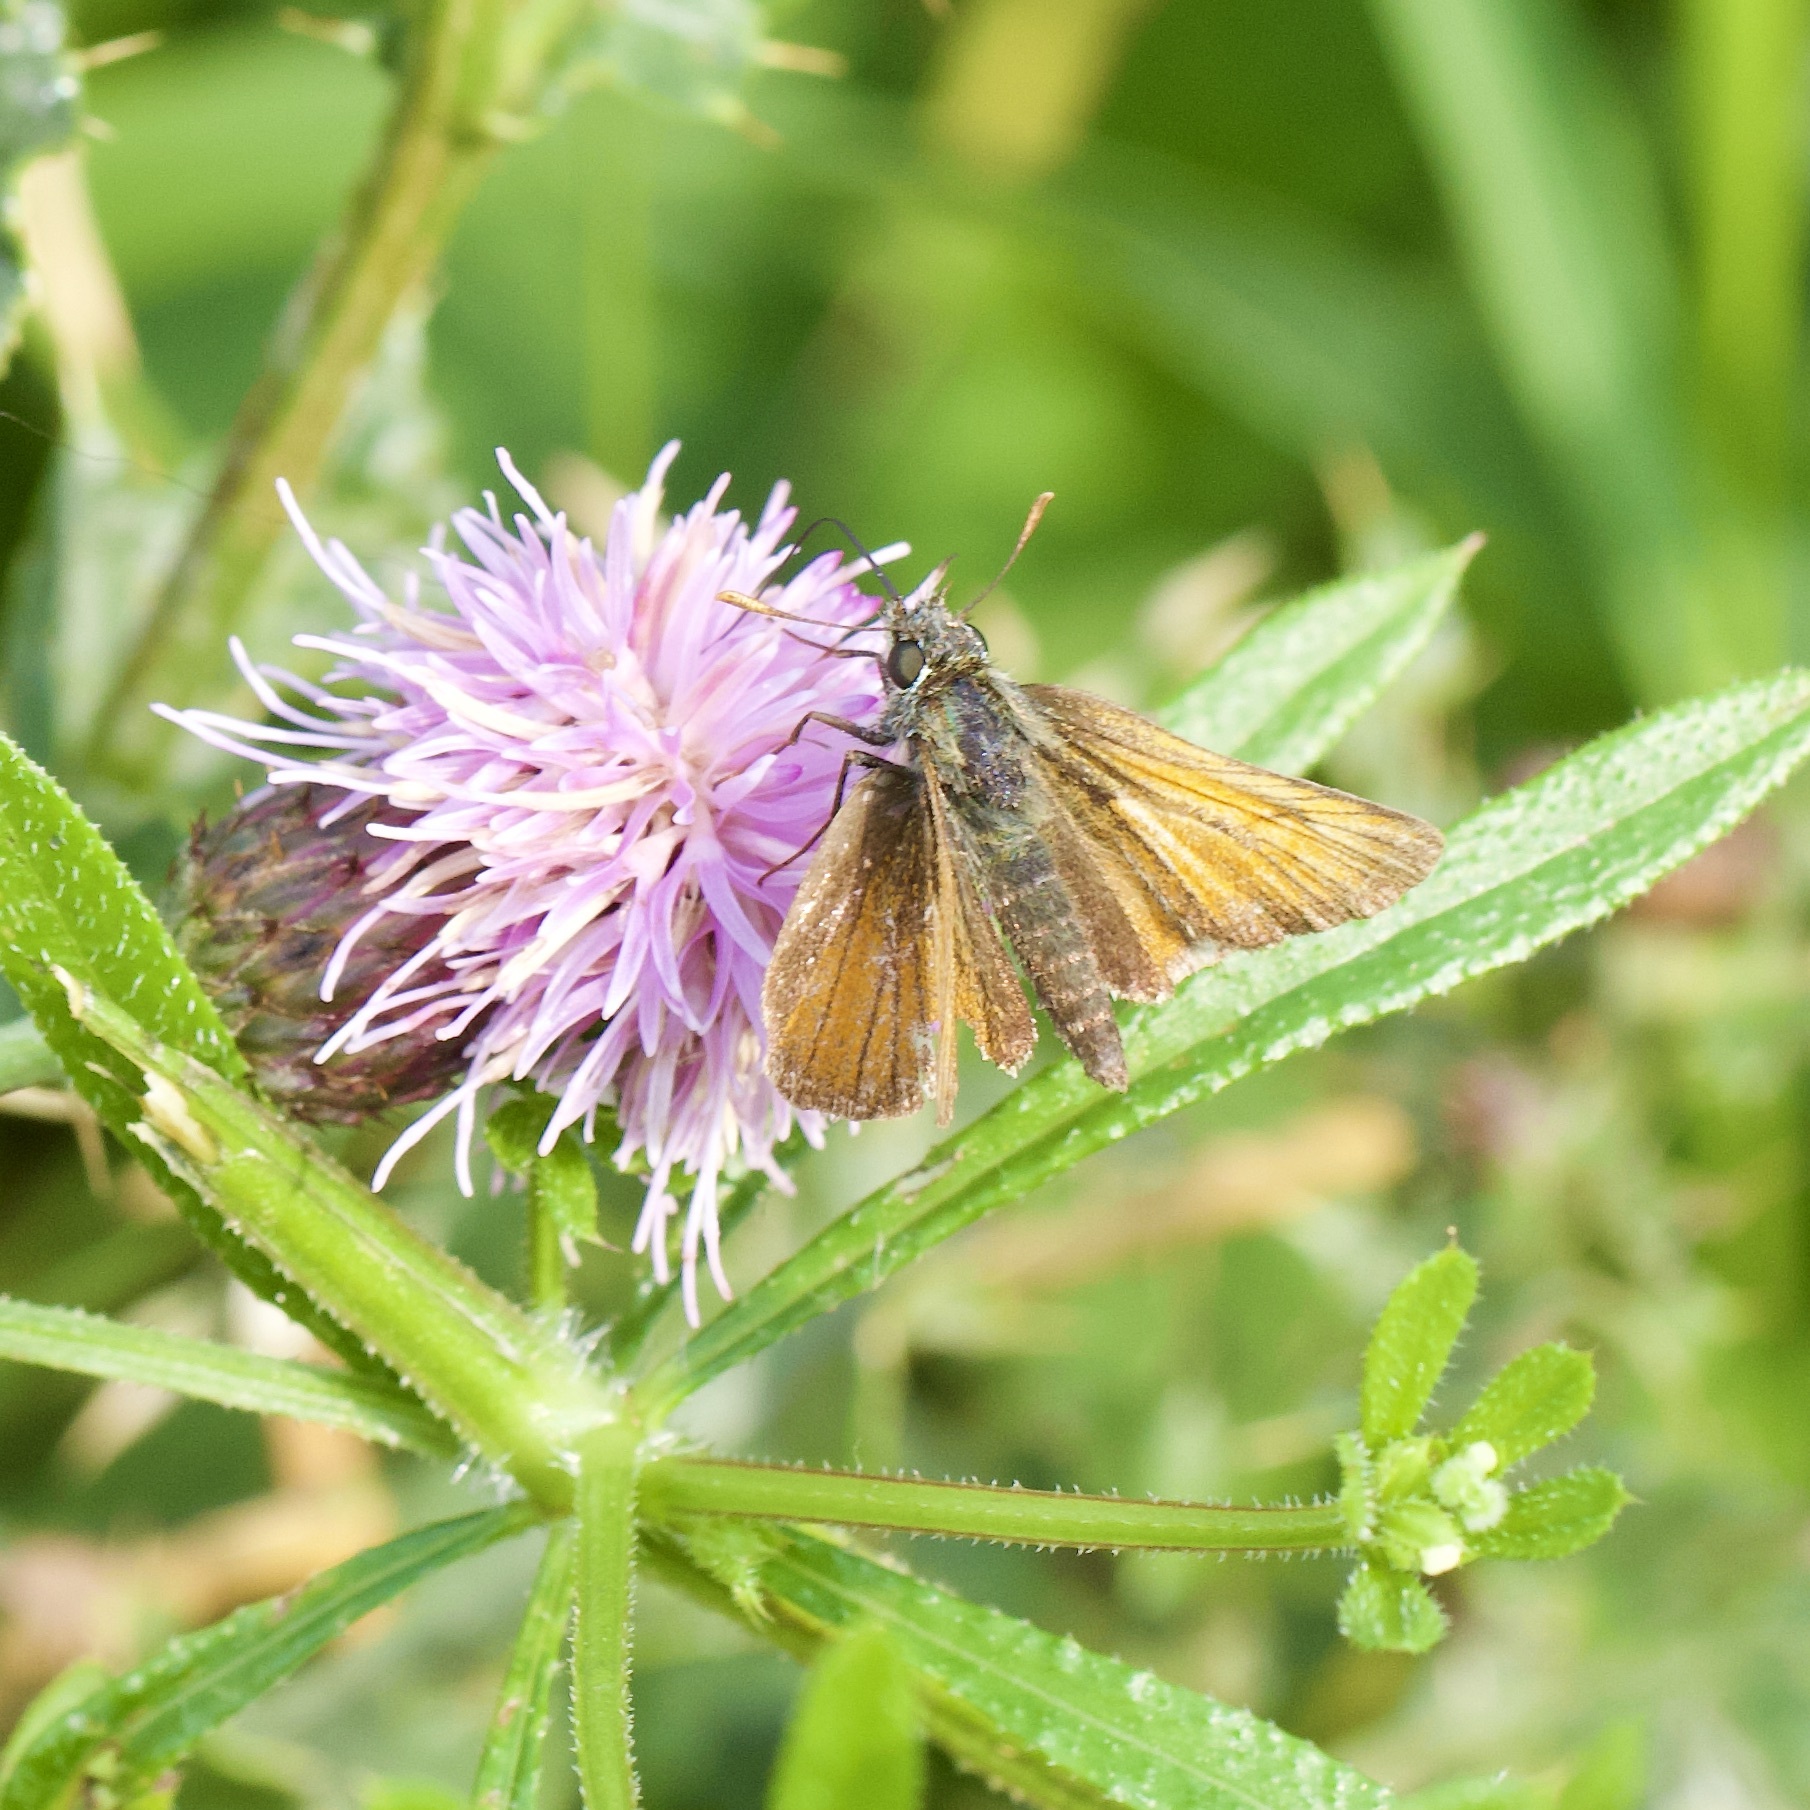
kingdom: Animalia
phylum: Arthropoda
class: Insecta
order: Lepidoptera
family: Hesperiidae
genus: Thymelicus
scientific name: Thymelicus sylvestris
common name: Small skipper
